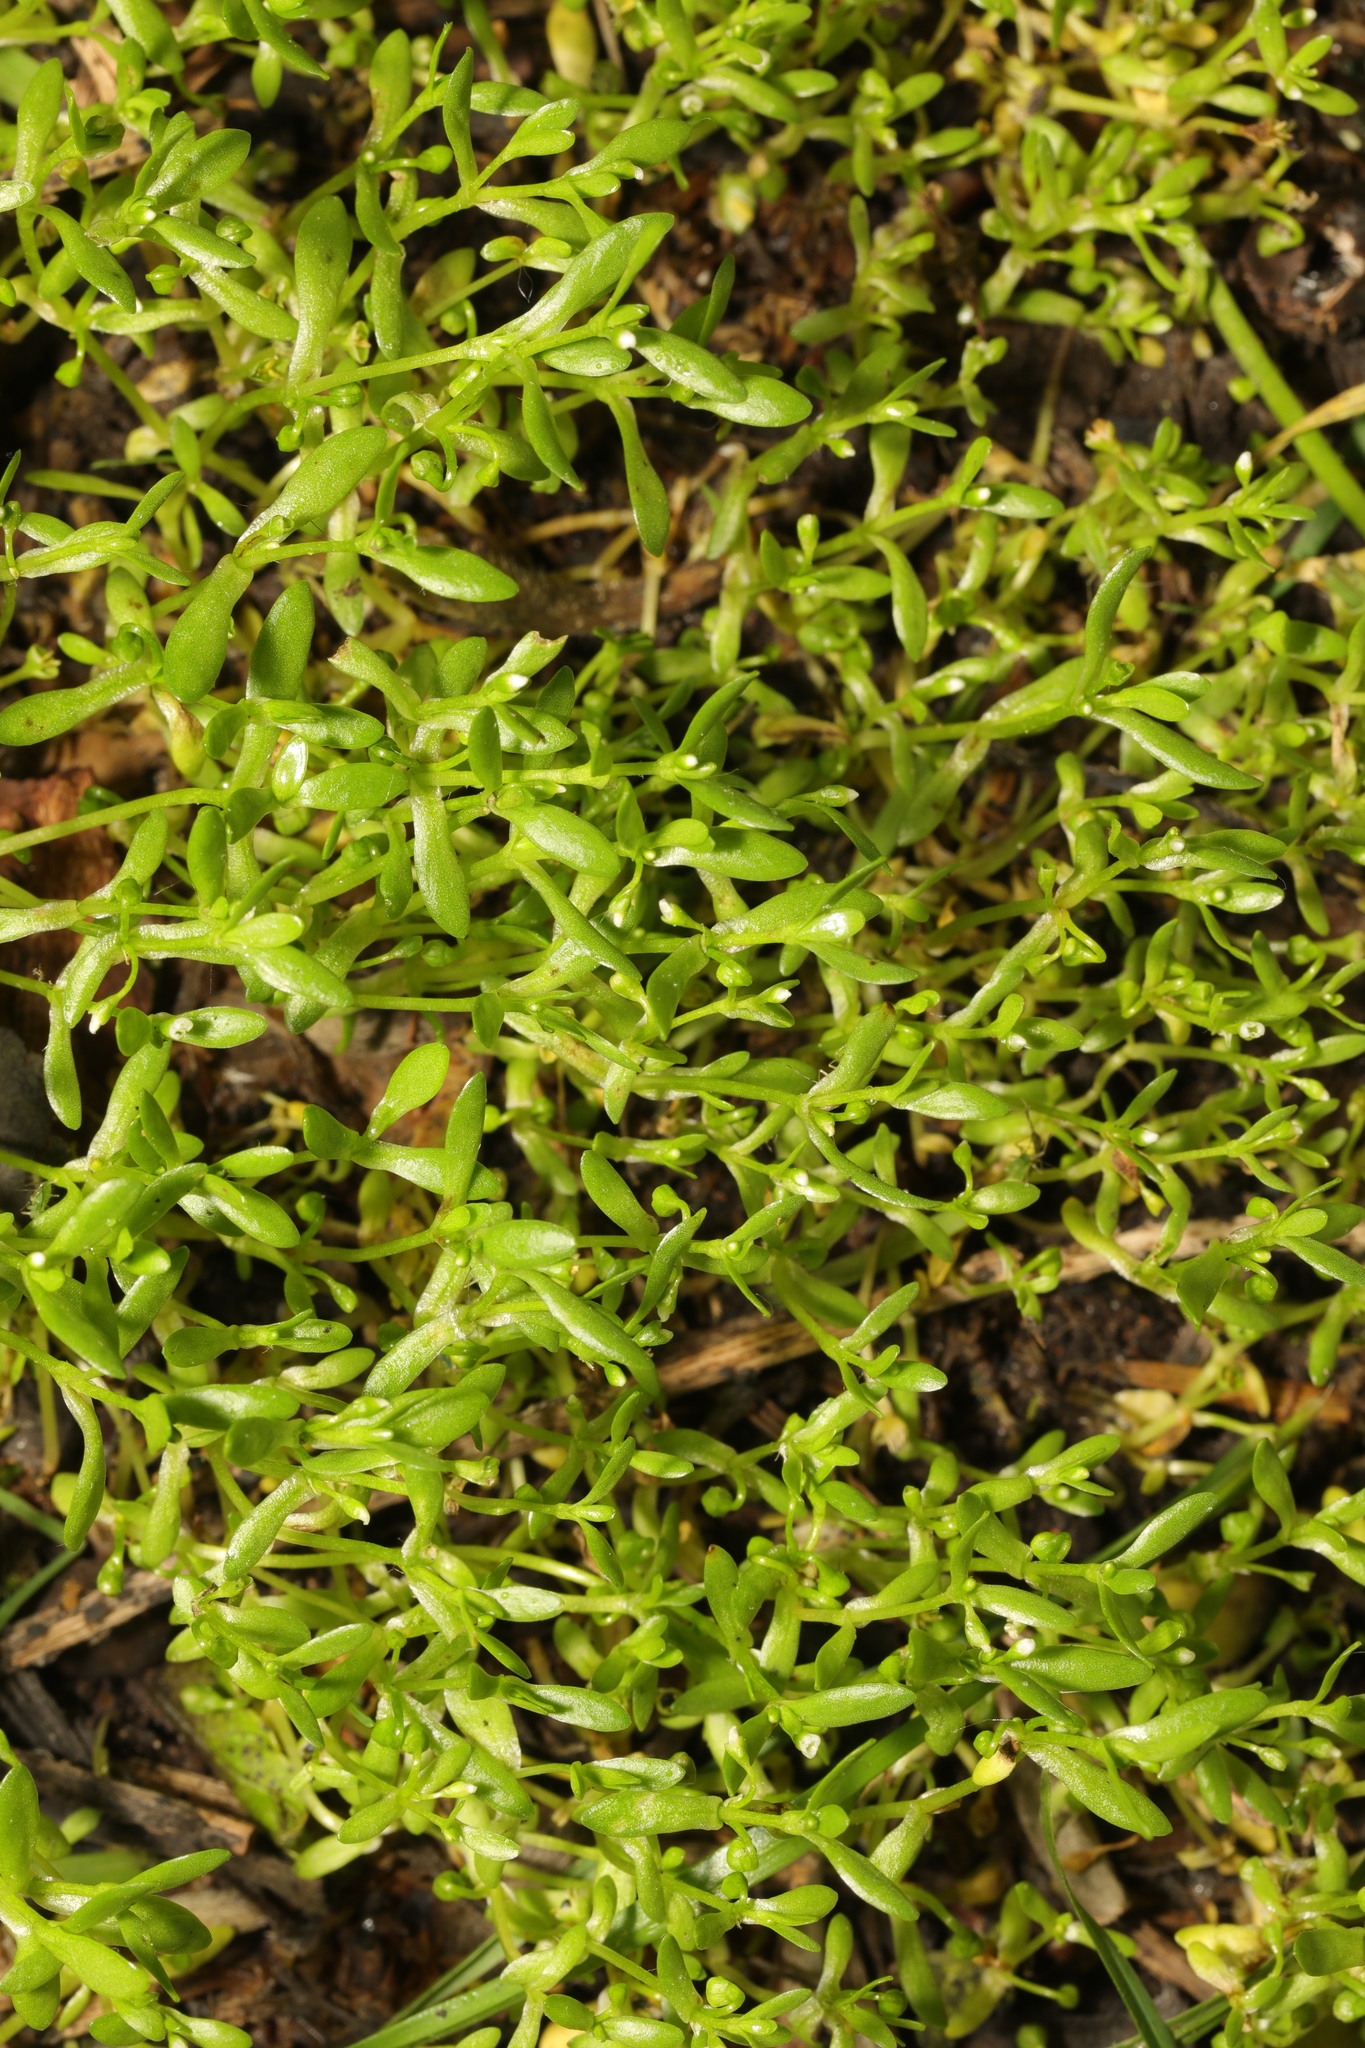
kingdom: Plantae
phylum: Tracheophyta
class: Magnoliopsida
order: Caryophyllales
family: Montiaceae
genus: Montia
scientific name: Montia fontana
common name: Blinks
